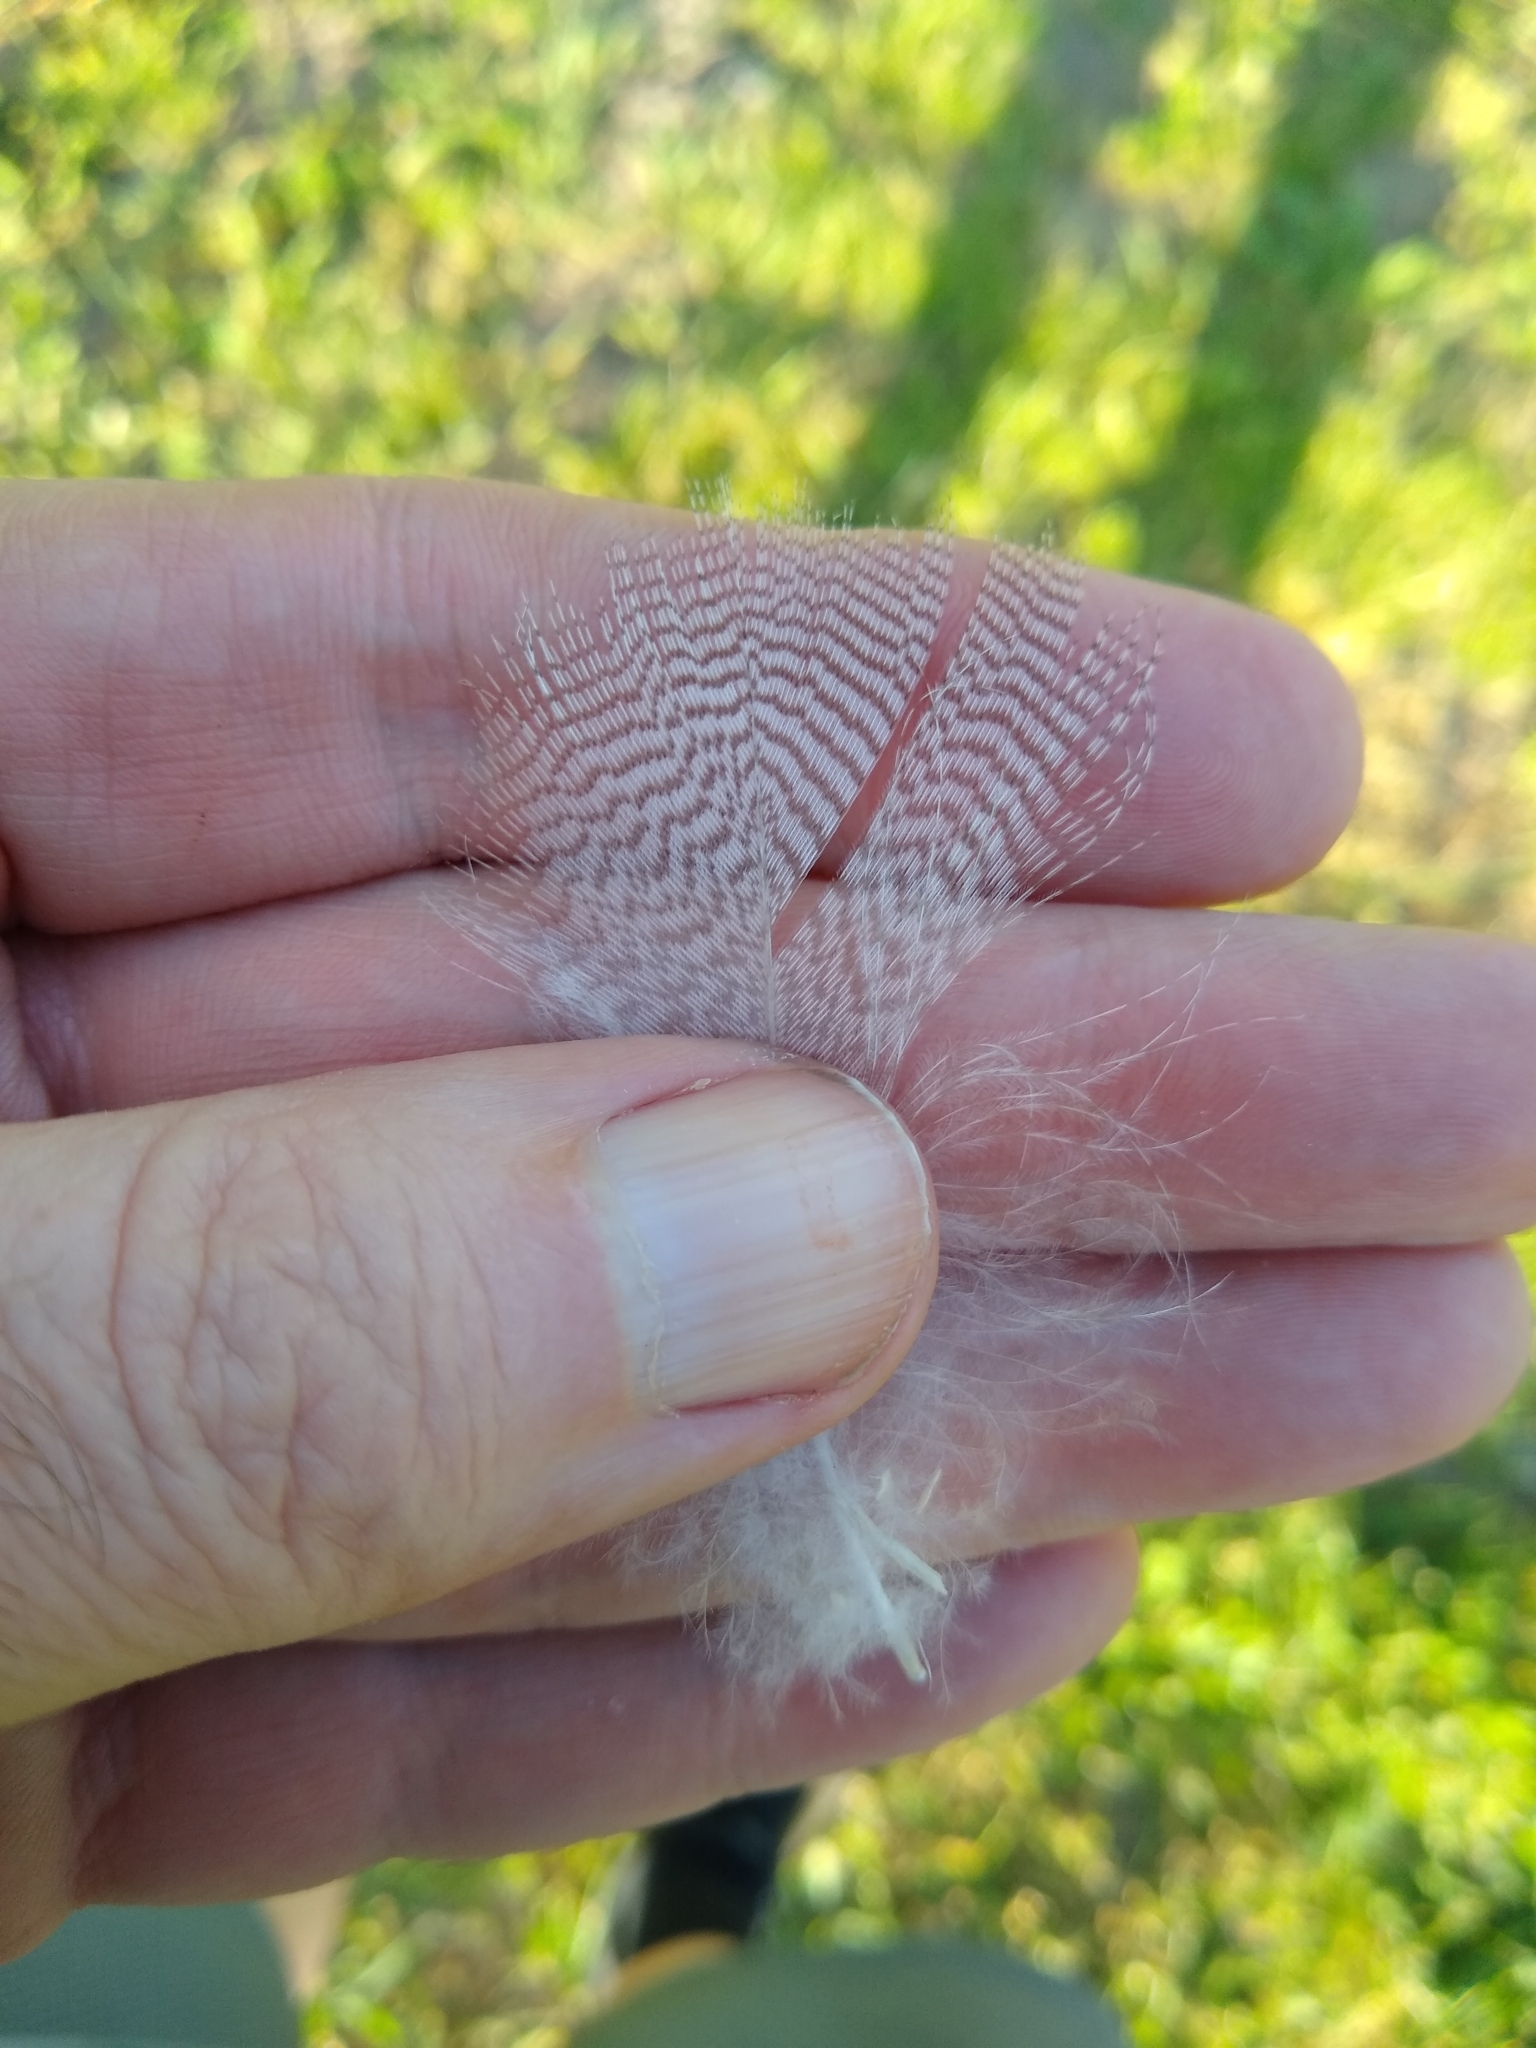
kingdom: Animalia
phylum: Chordata
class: Aves
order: Anseriformes
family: Anatidae
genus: Anas
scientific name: Anas platyrhynchos
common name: Mallard
